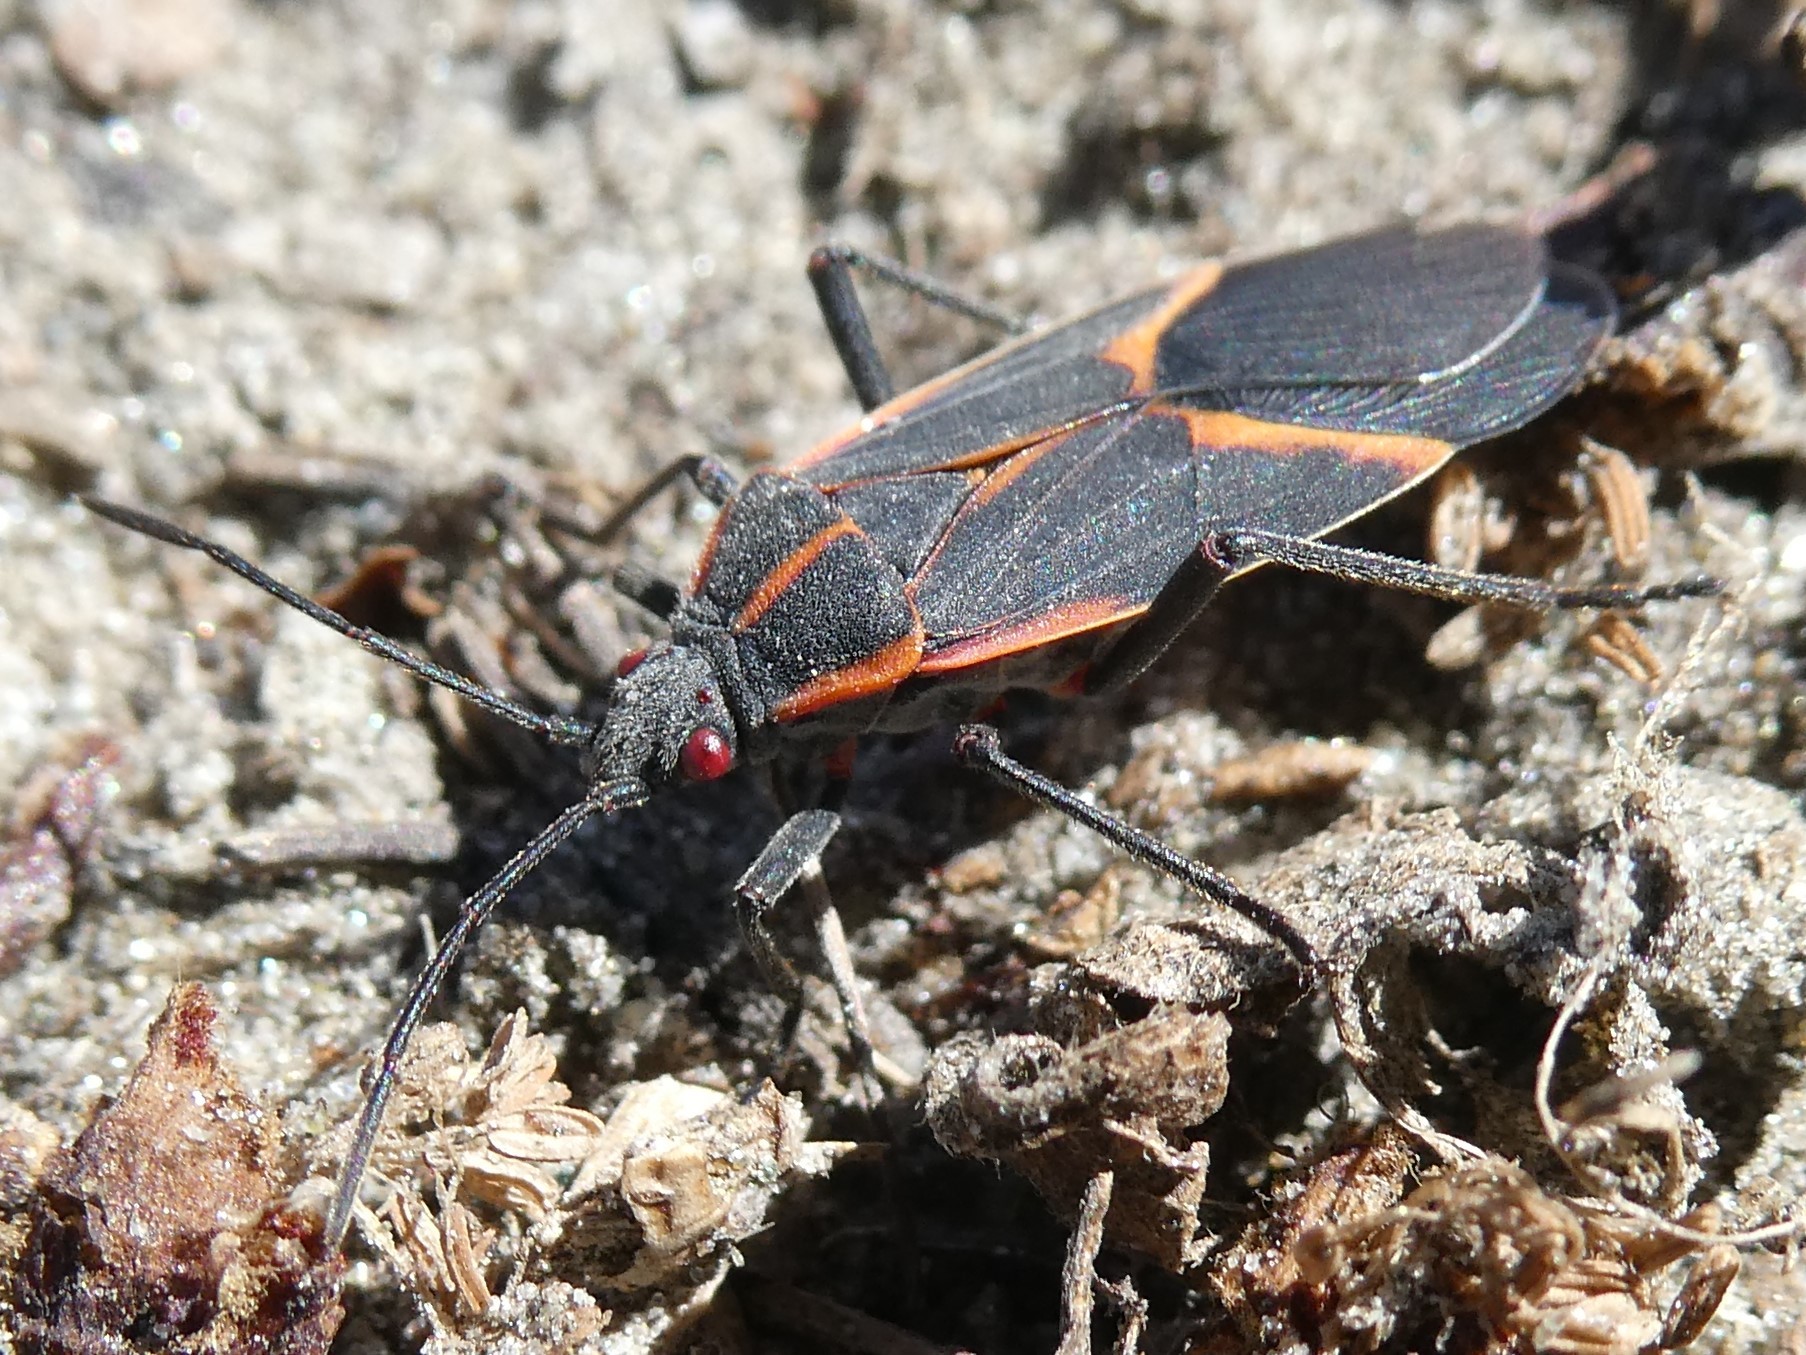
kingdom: Animalia
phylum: Arthropoda
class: Insecta
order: Hemiptera
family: Rhopalidae
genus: Boisea
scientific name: Boisea trivittata
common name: Boxelder bug
